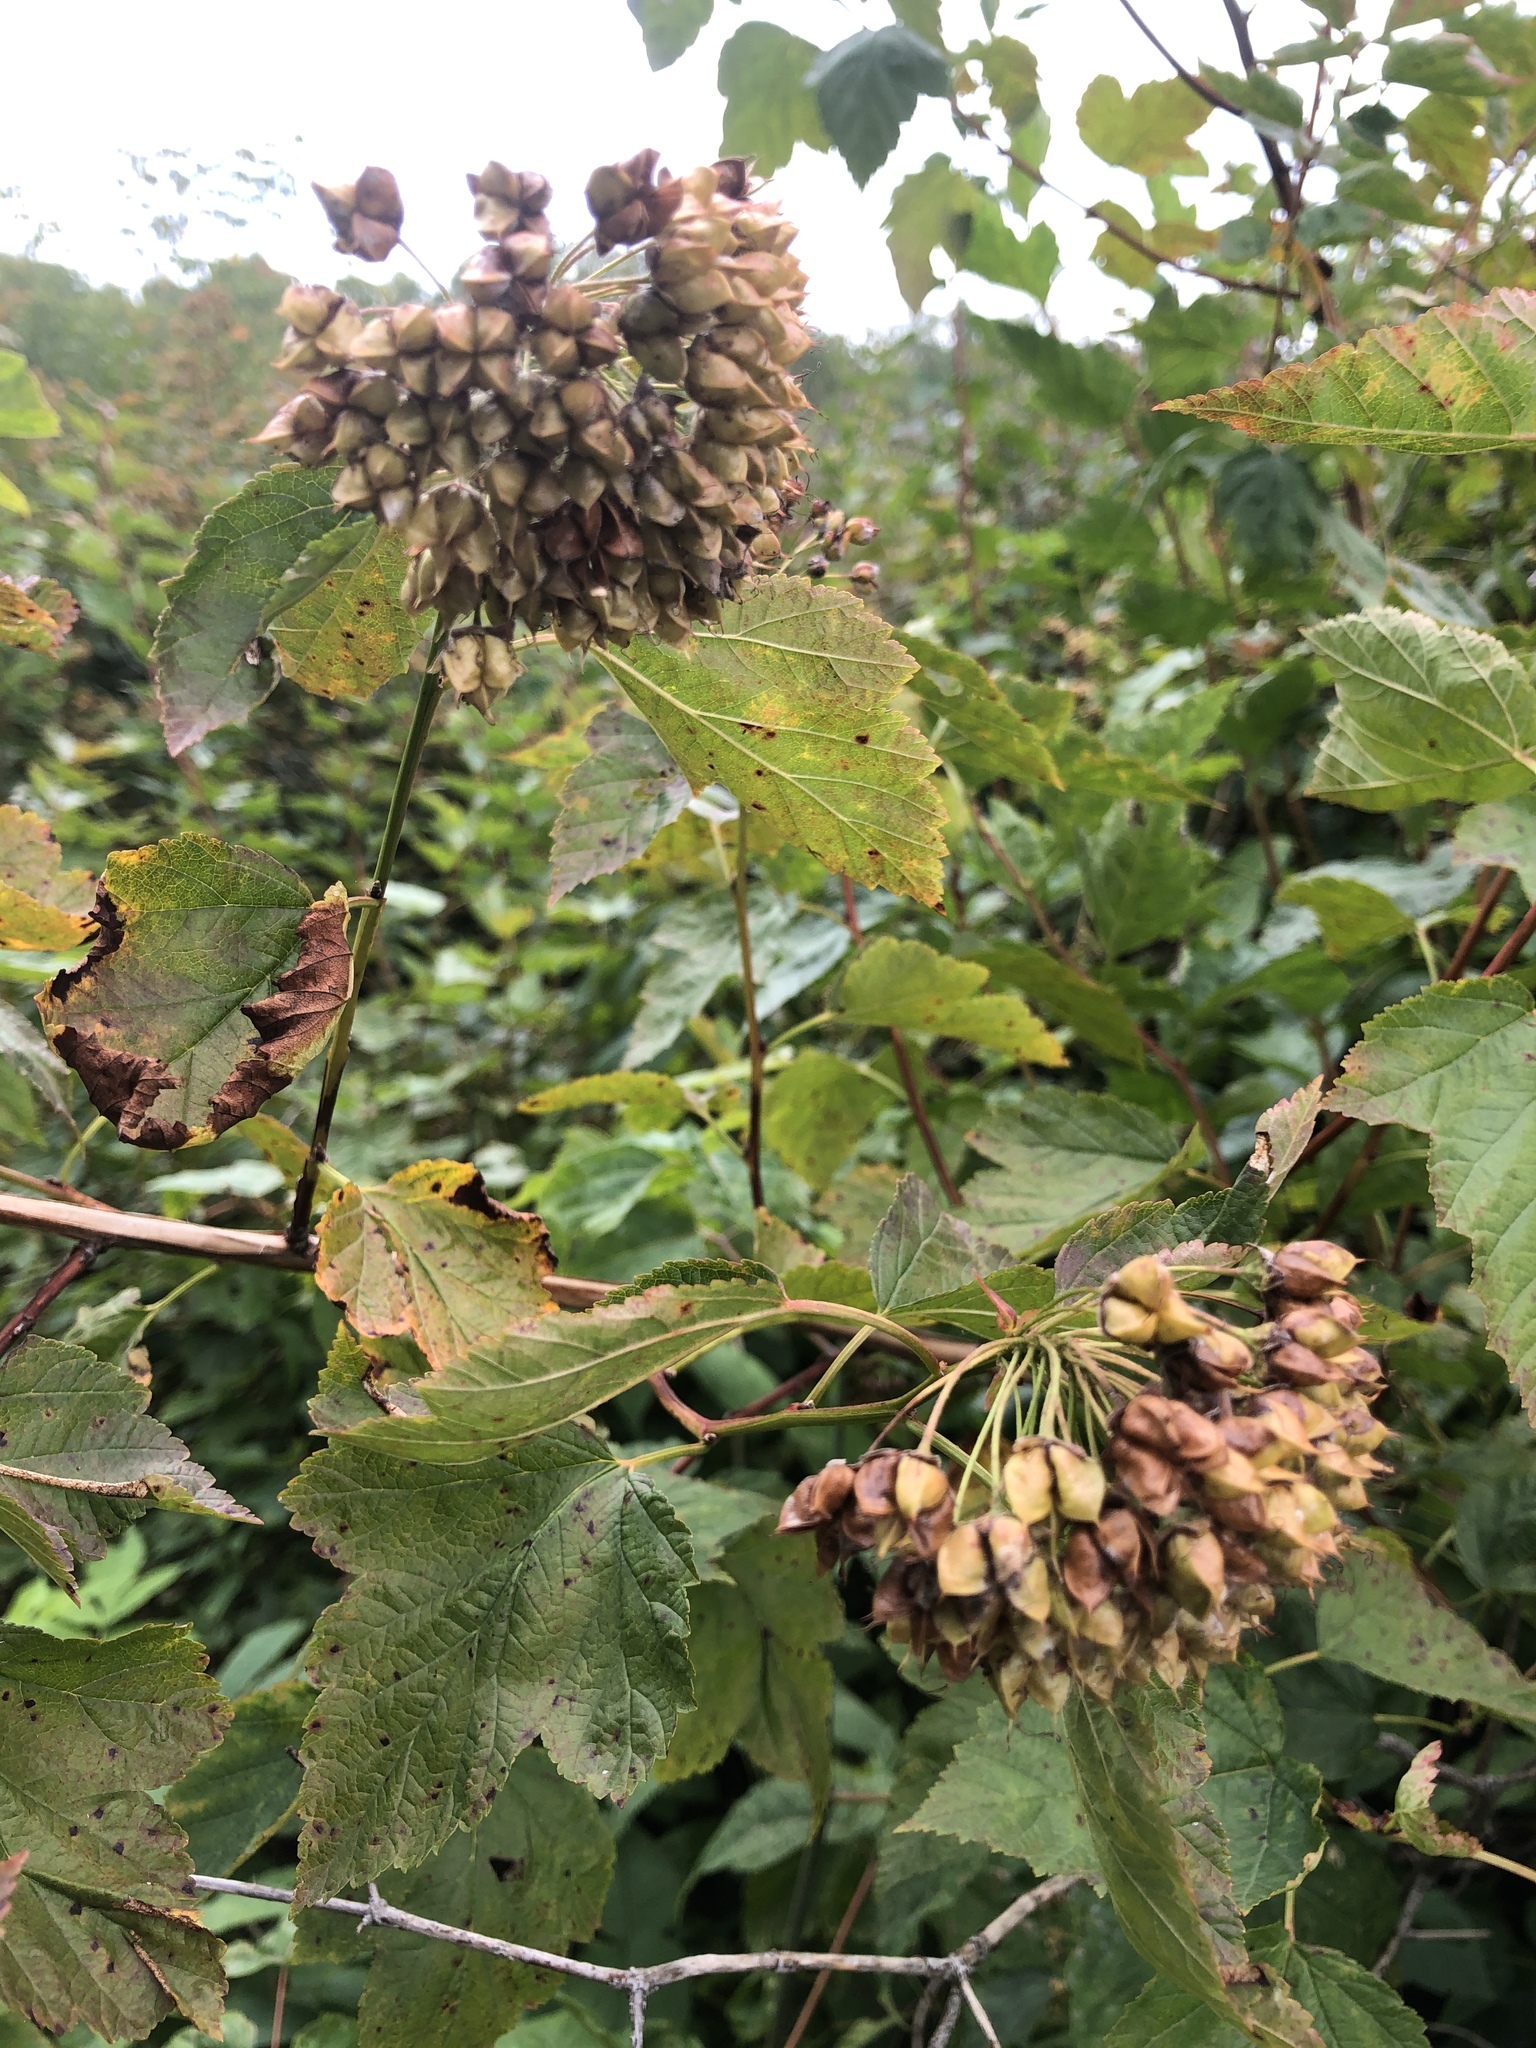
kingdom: Plantae
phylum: Tracheophyta
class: Magnoliopsida
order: Rosales
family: Rosaceae
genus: Physocarpus
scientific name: Physocarpus opulifolius
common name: Ninebark
